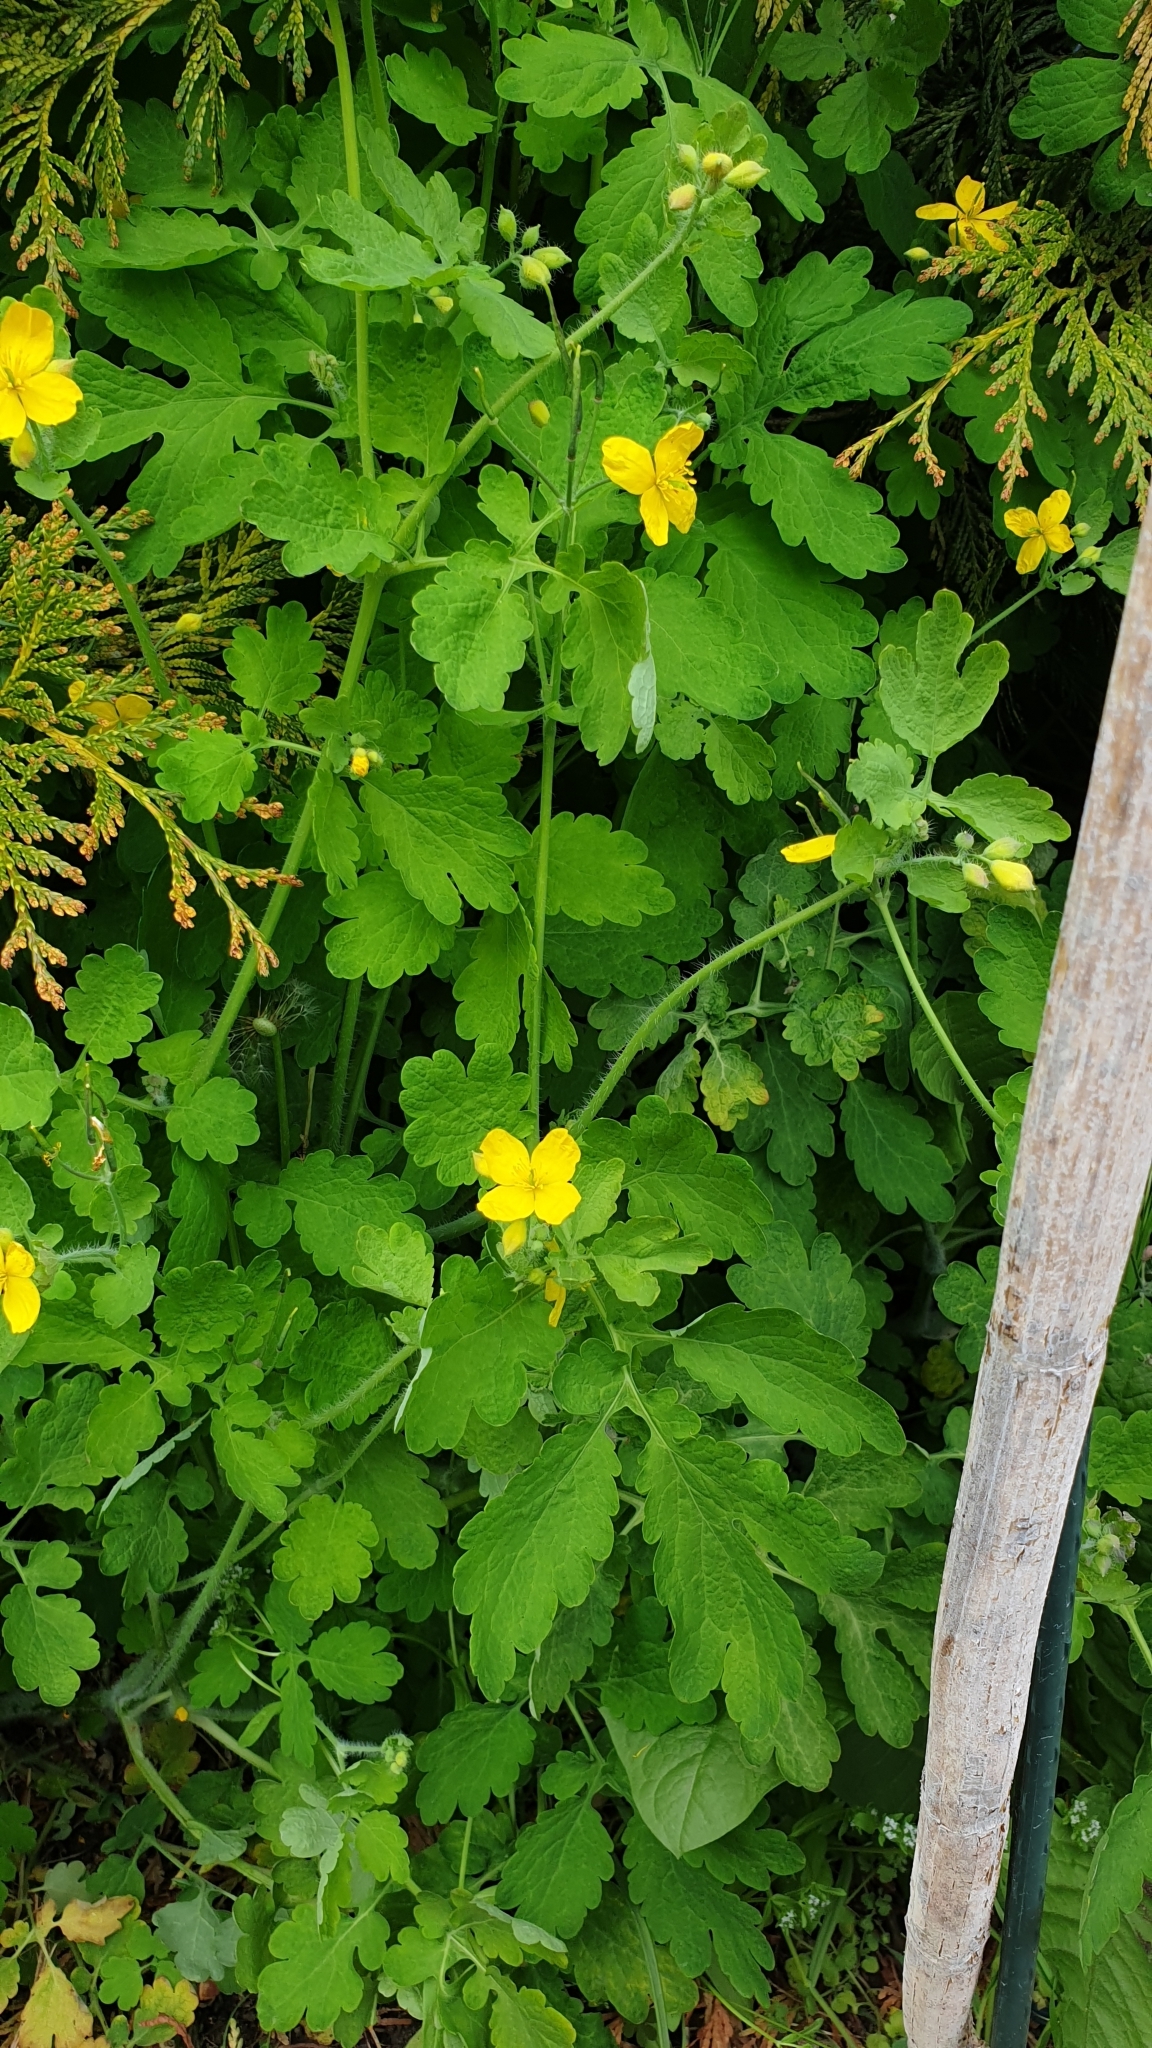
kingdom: Plantae
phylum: Tracheophyta
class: Magnoliopsida
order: Ranunculales
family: Papaveraceae
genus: Chelidonium
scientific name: Chelidonium majus
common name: Greater celandine
